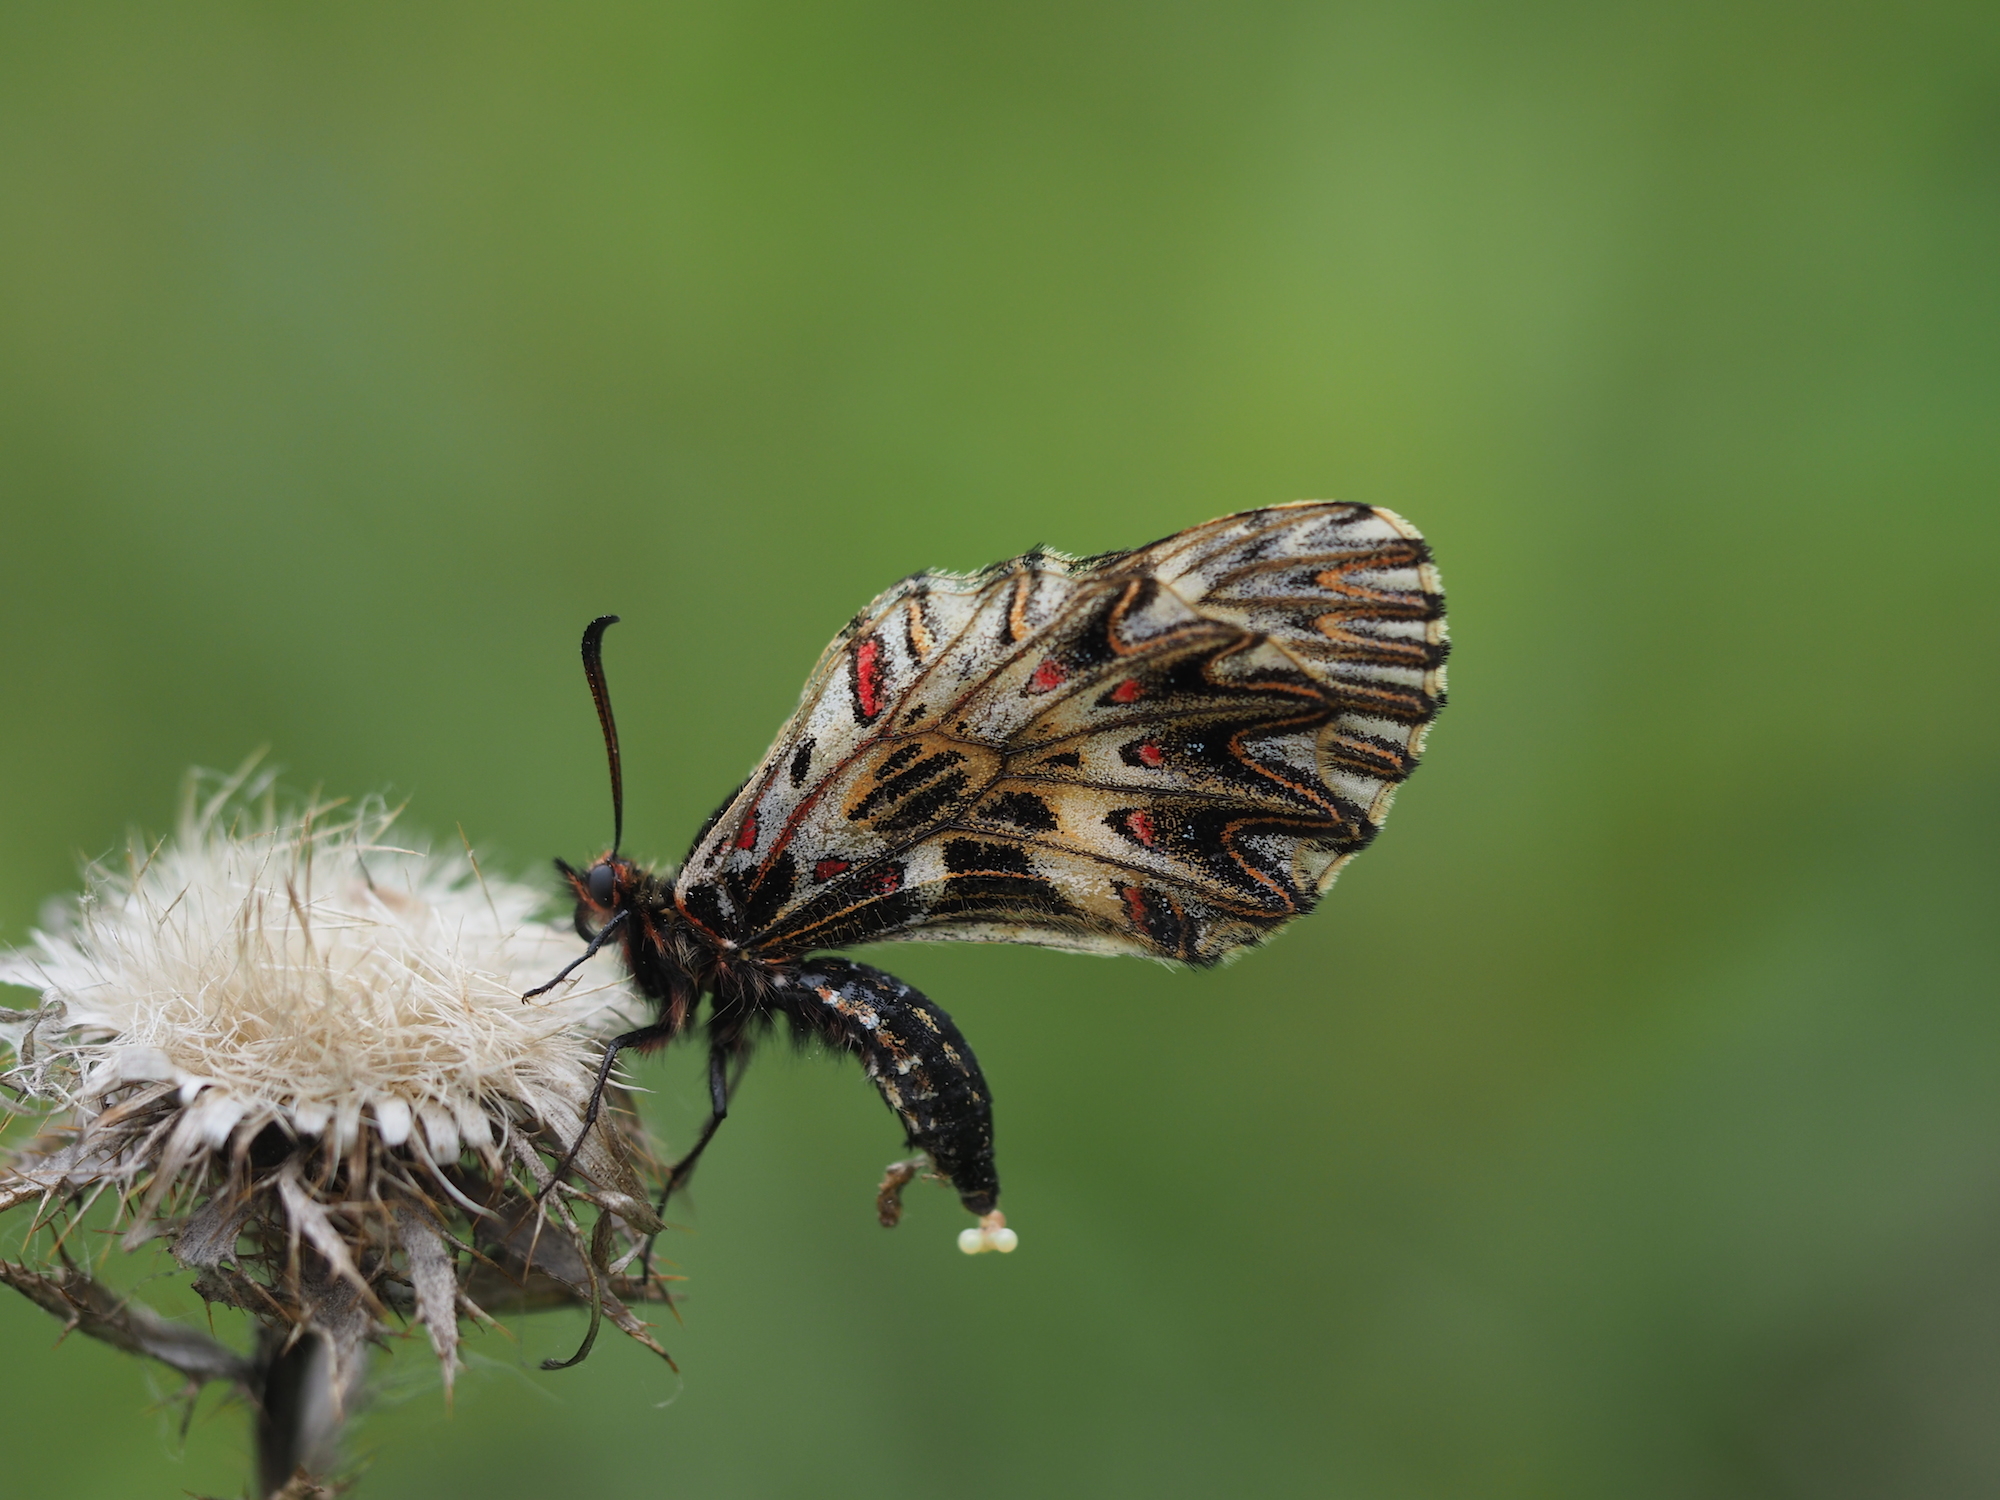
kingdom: Animalia
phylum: Arthropoda
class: Insecta
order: Lepidoptera
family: Papilionidae
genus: Zerynthia
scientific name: Zerynthia polyxena
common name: Southern festoon
